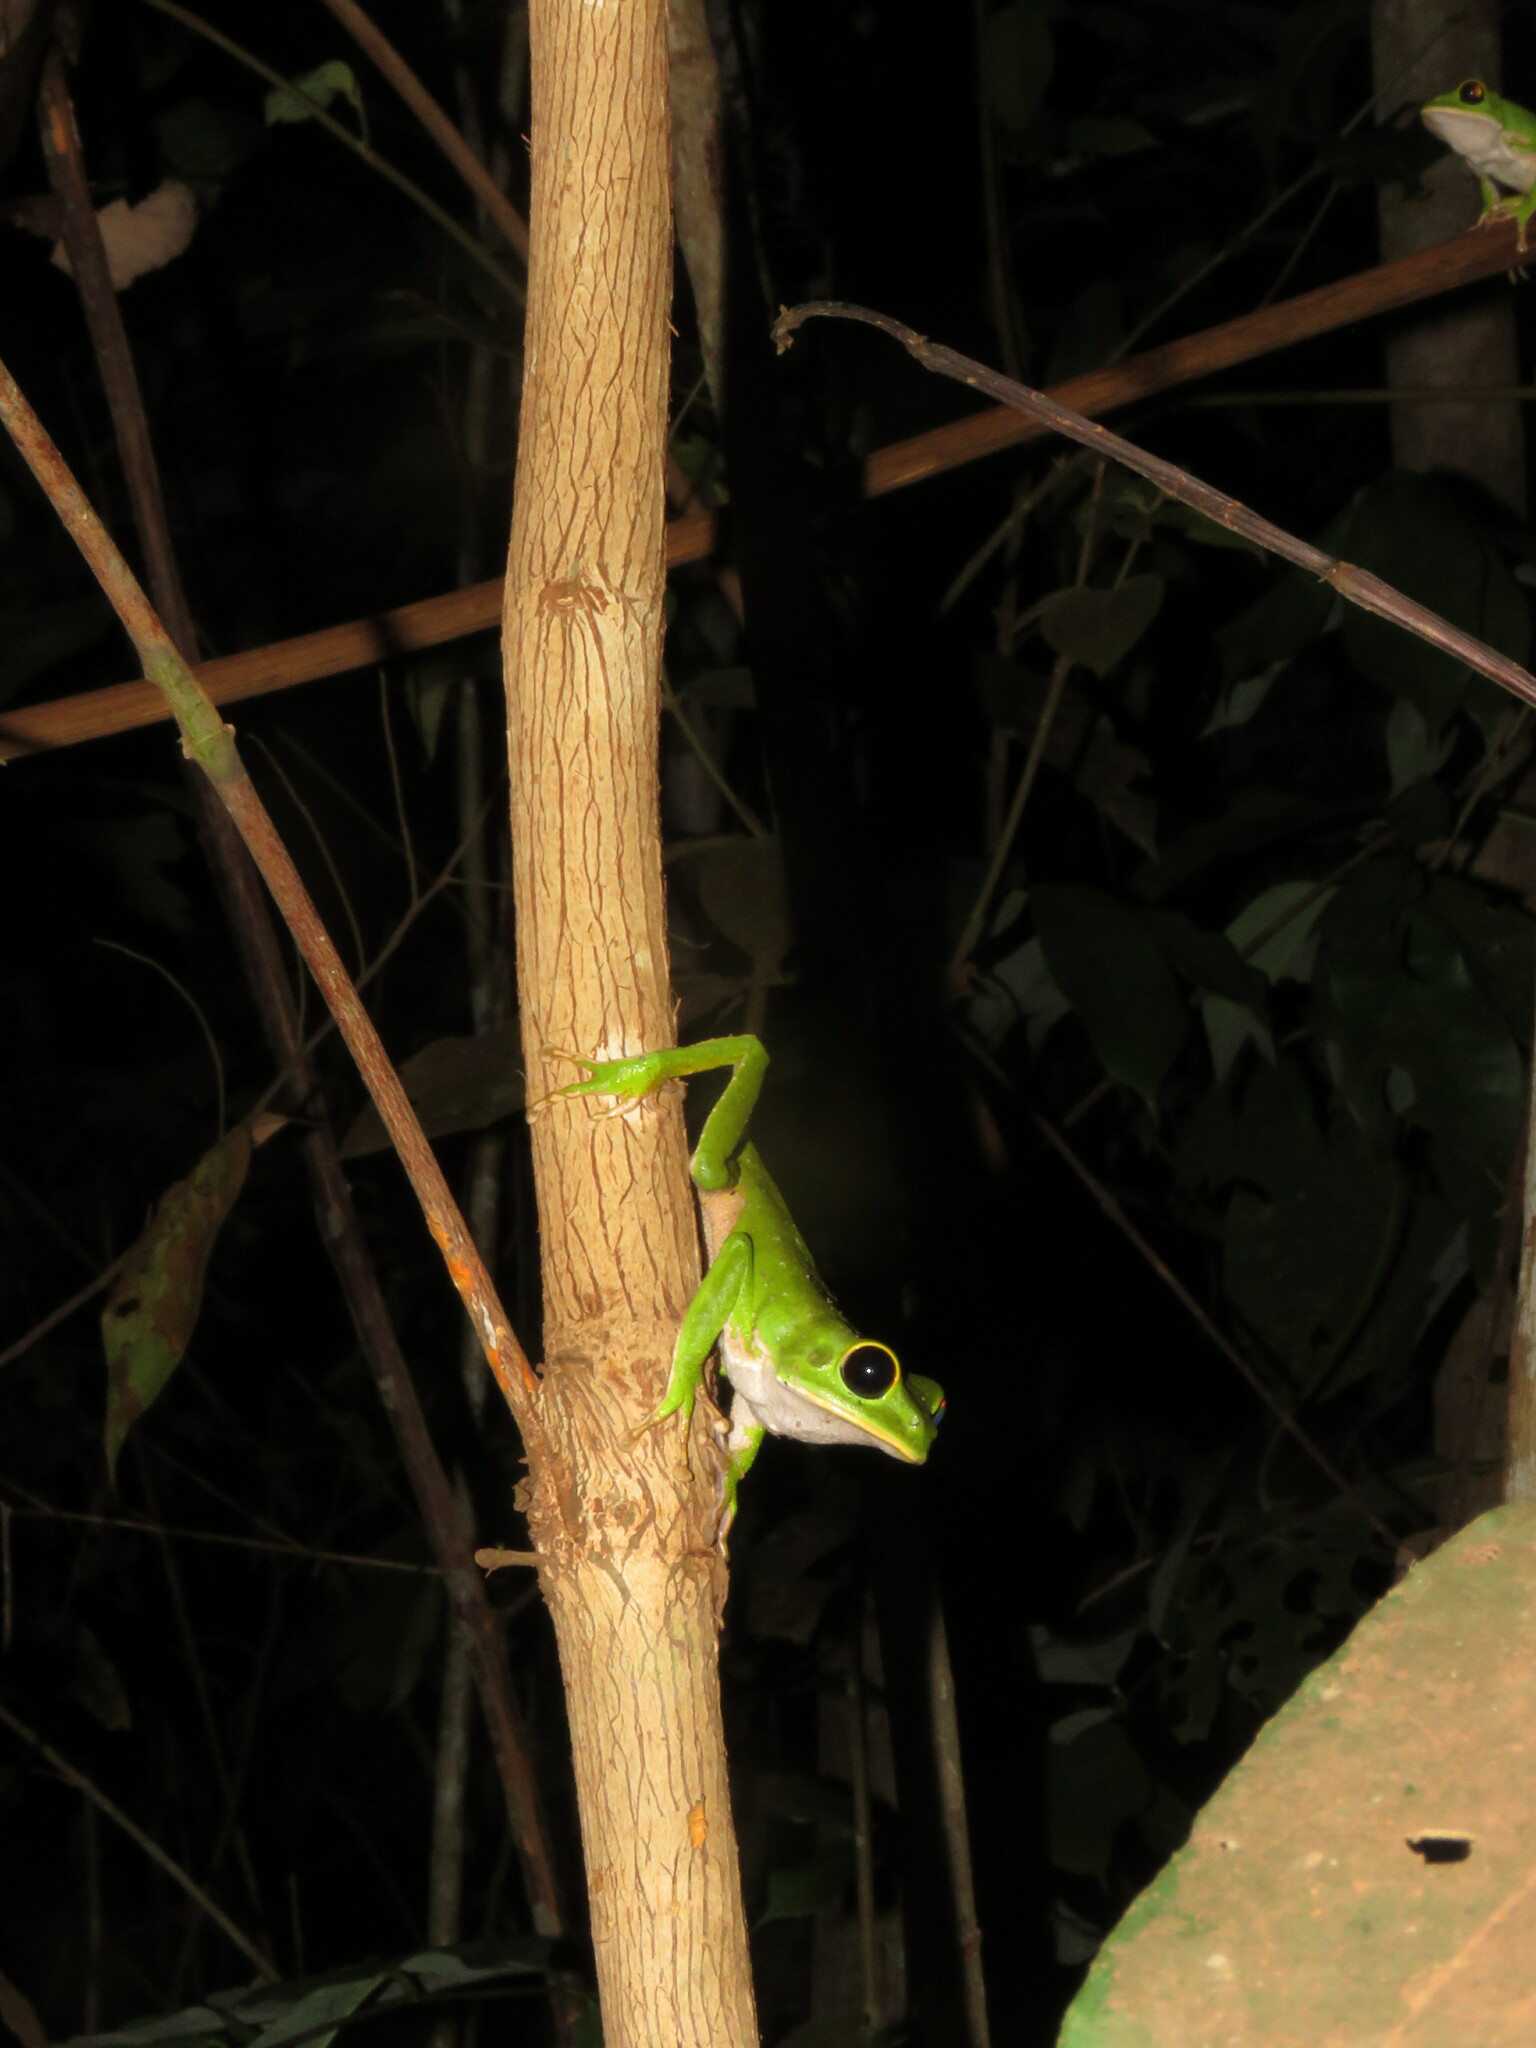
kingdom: Animalia
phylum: Chordata
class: Amphibia
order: Anura
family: Phyllomedusidae
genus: Phyllomedusa
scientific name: Phyllomedusa camba
